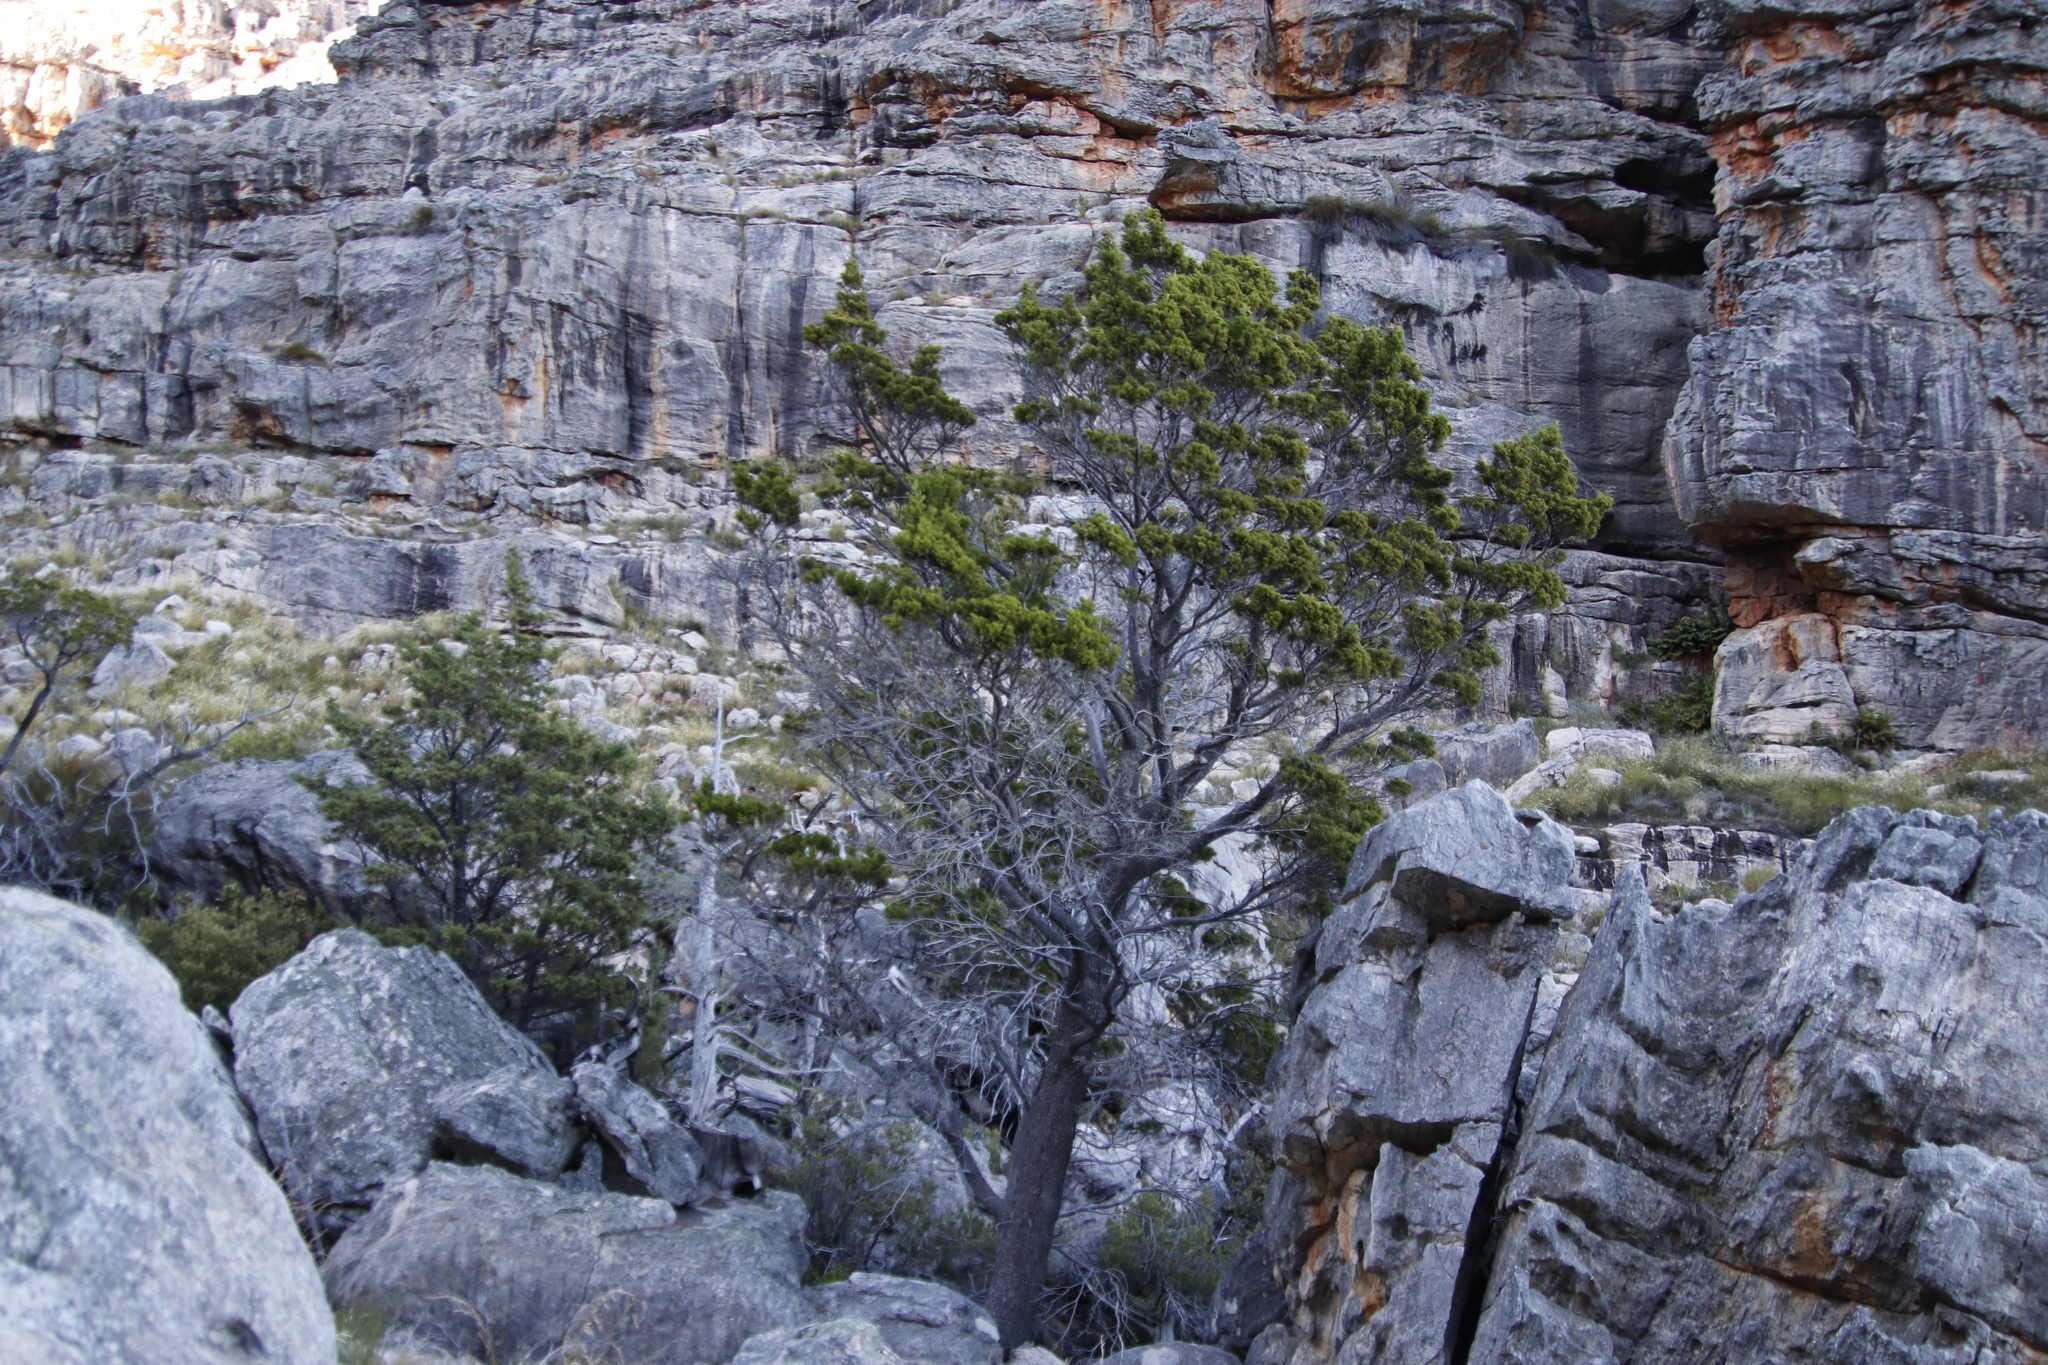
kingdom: Plantae
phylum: Tracheophyta
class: Pinopsida
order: Pinales
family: Cupressaceae
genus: Widdringtonia
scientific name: Widdringtonia nodiflora
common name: Cape cypress
